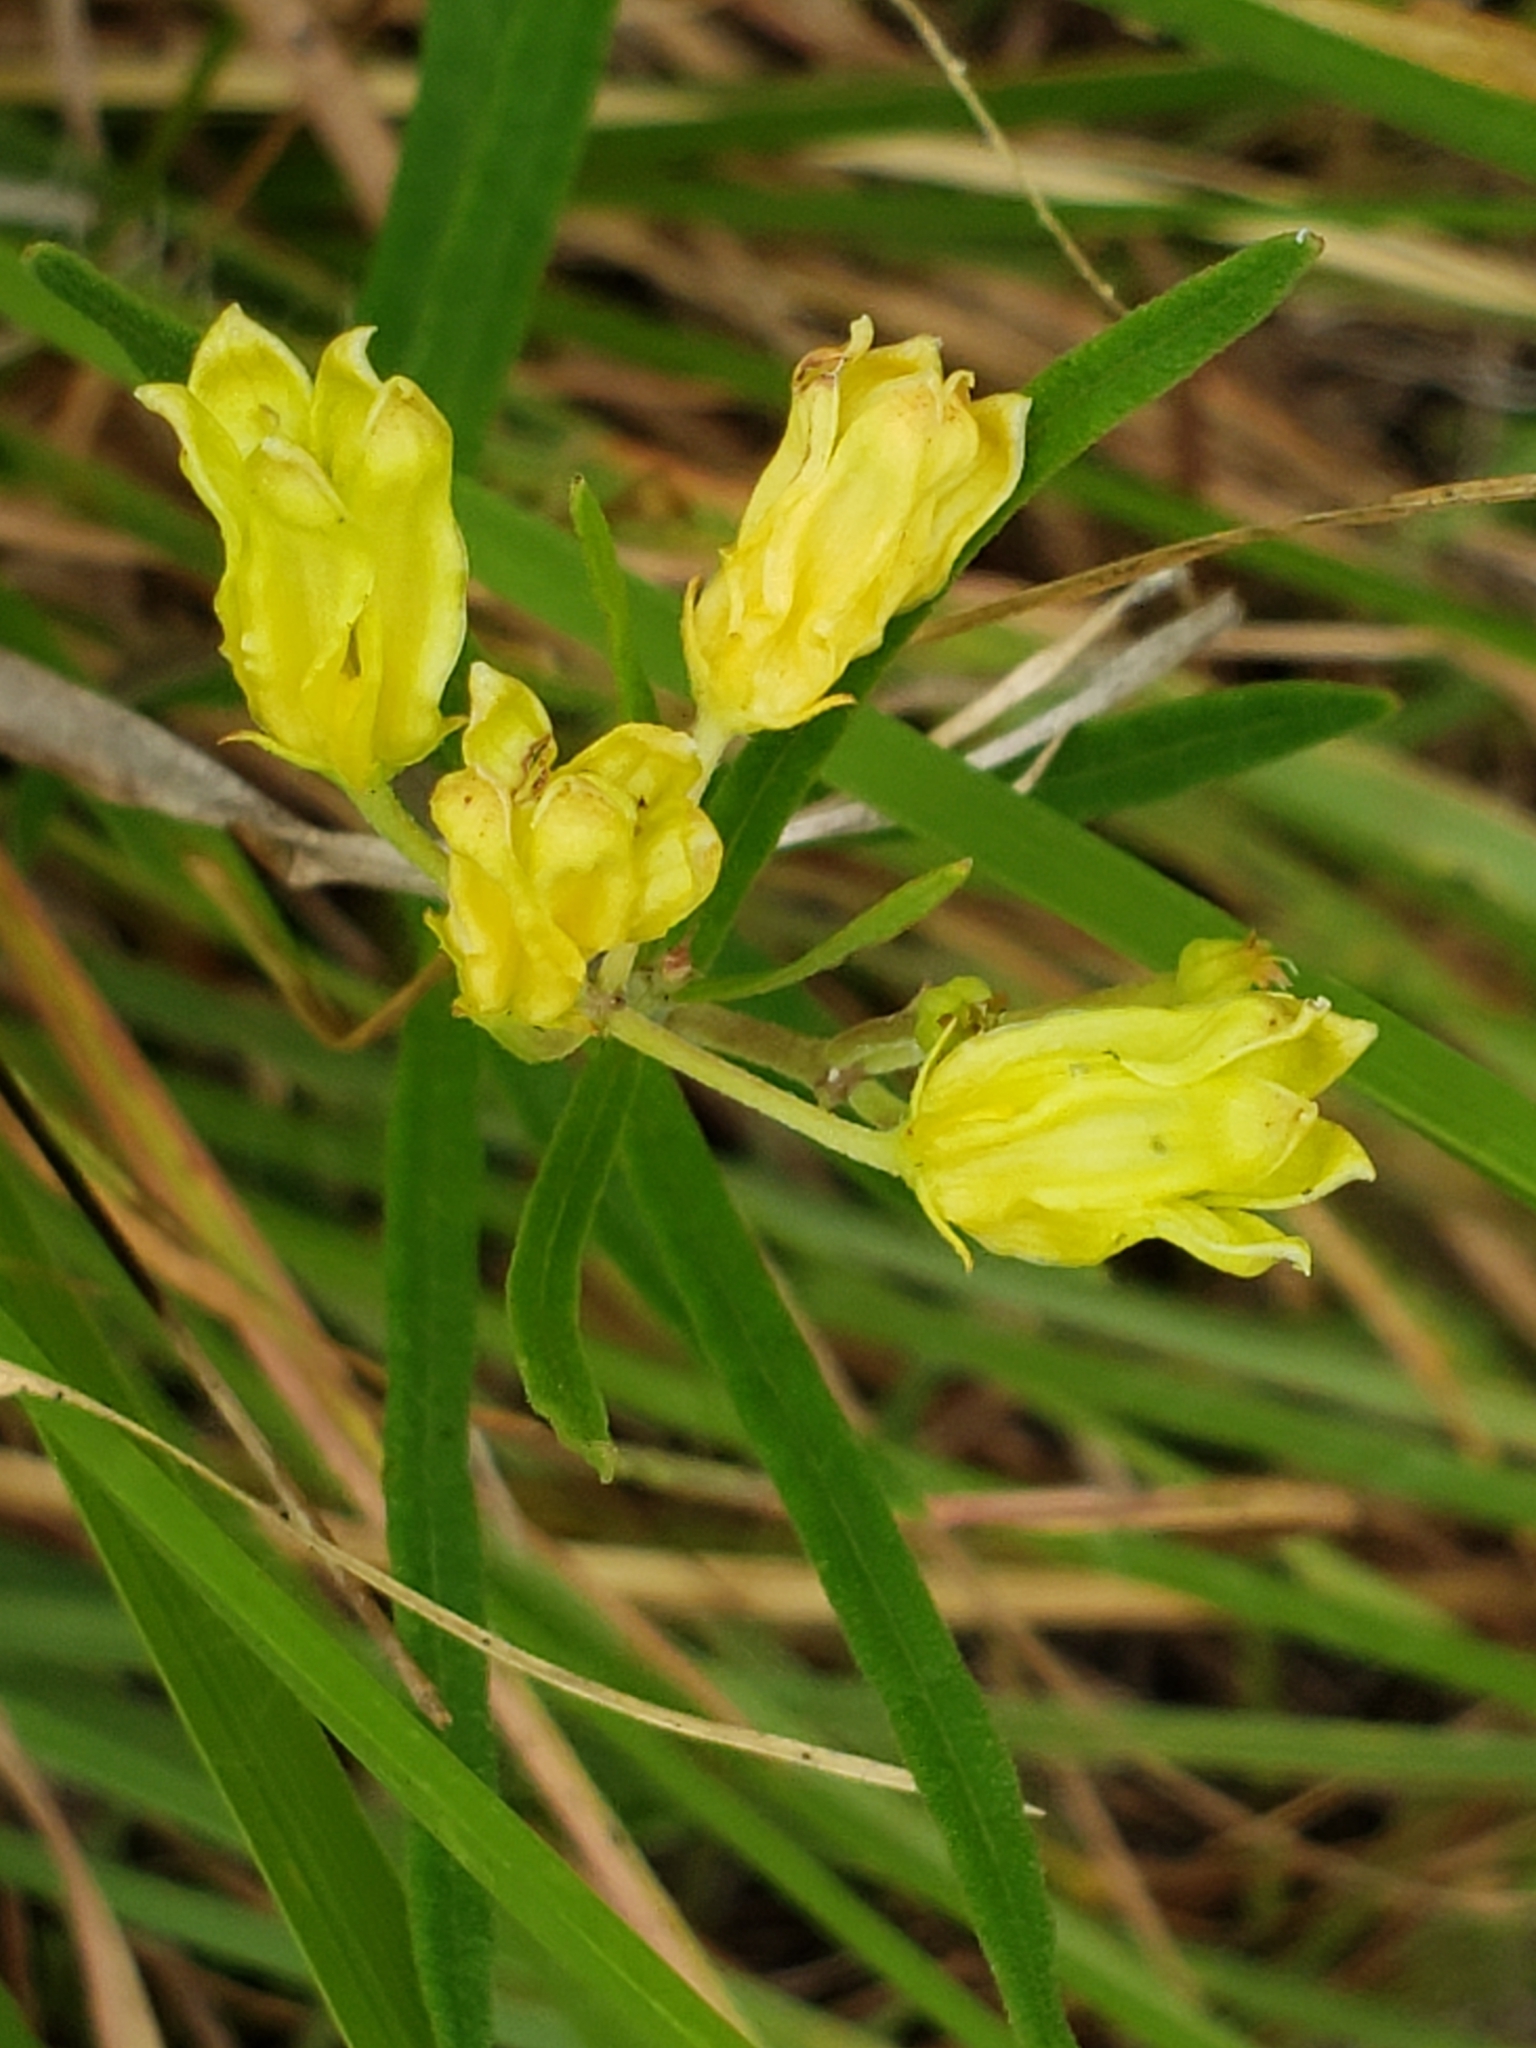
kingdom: Plantae
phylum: Tracheophyta
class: Magnoliopsida
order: Gentianales
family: Apocynaceae
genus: Asclepias
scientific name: Asclepias pedicellata
